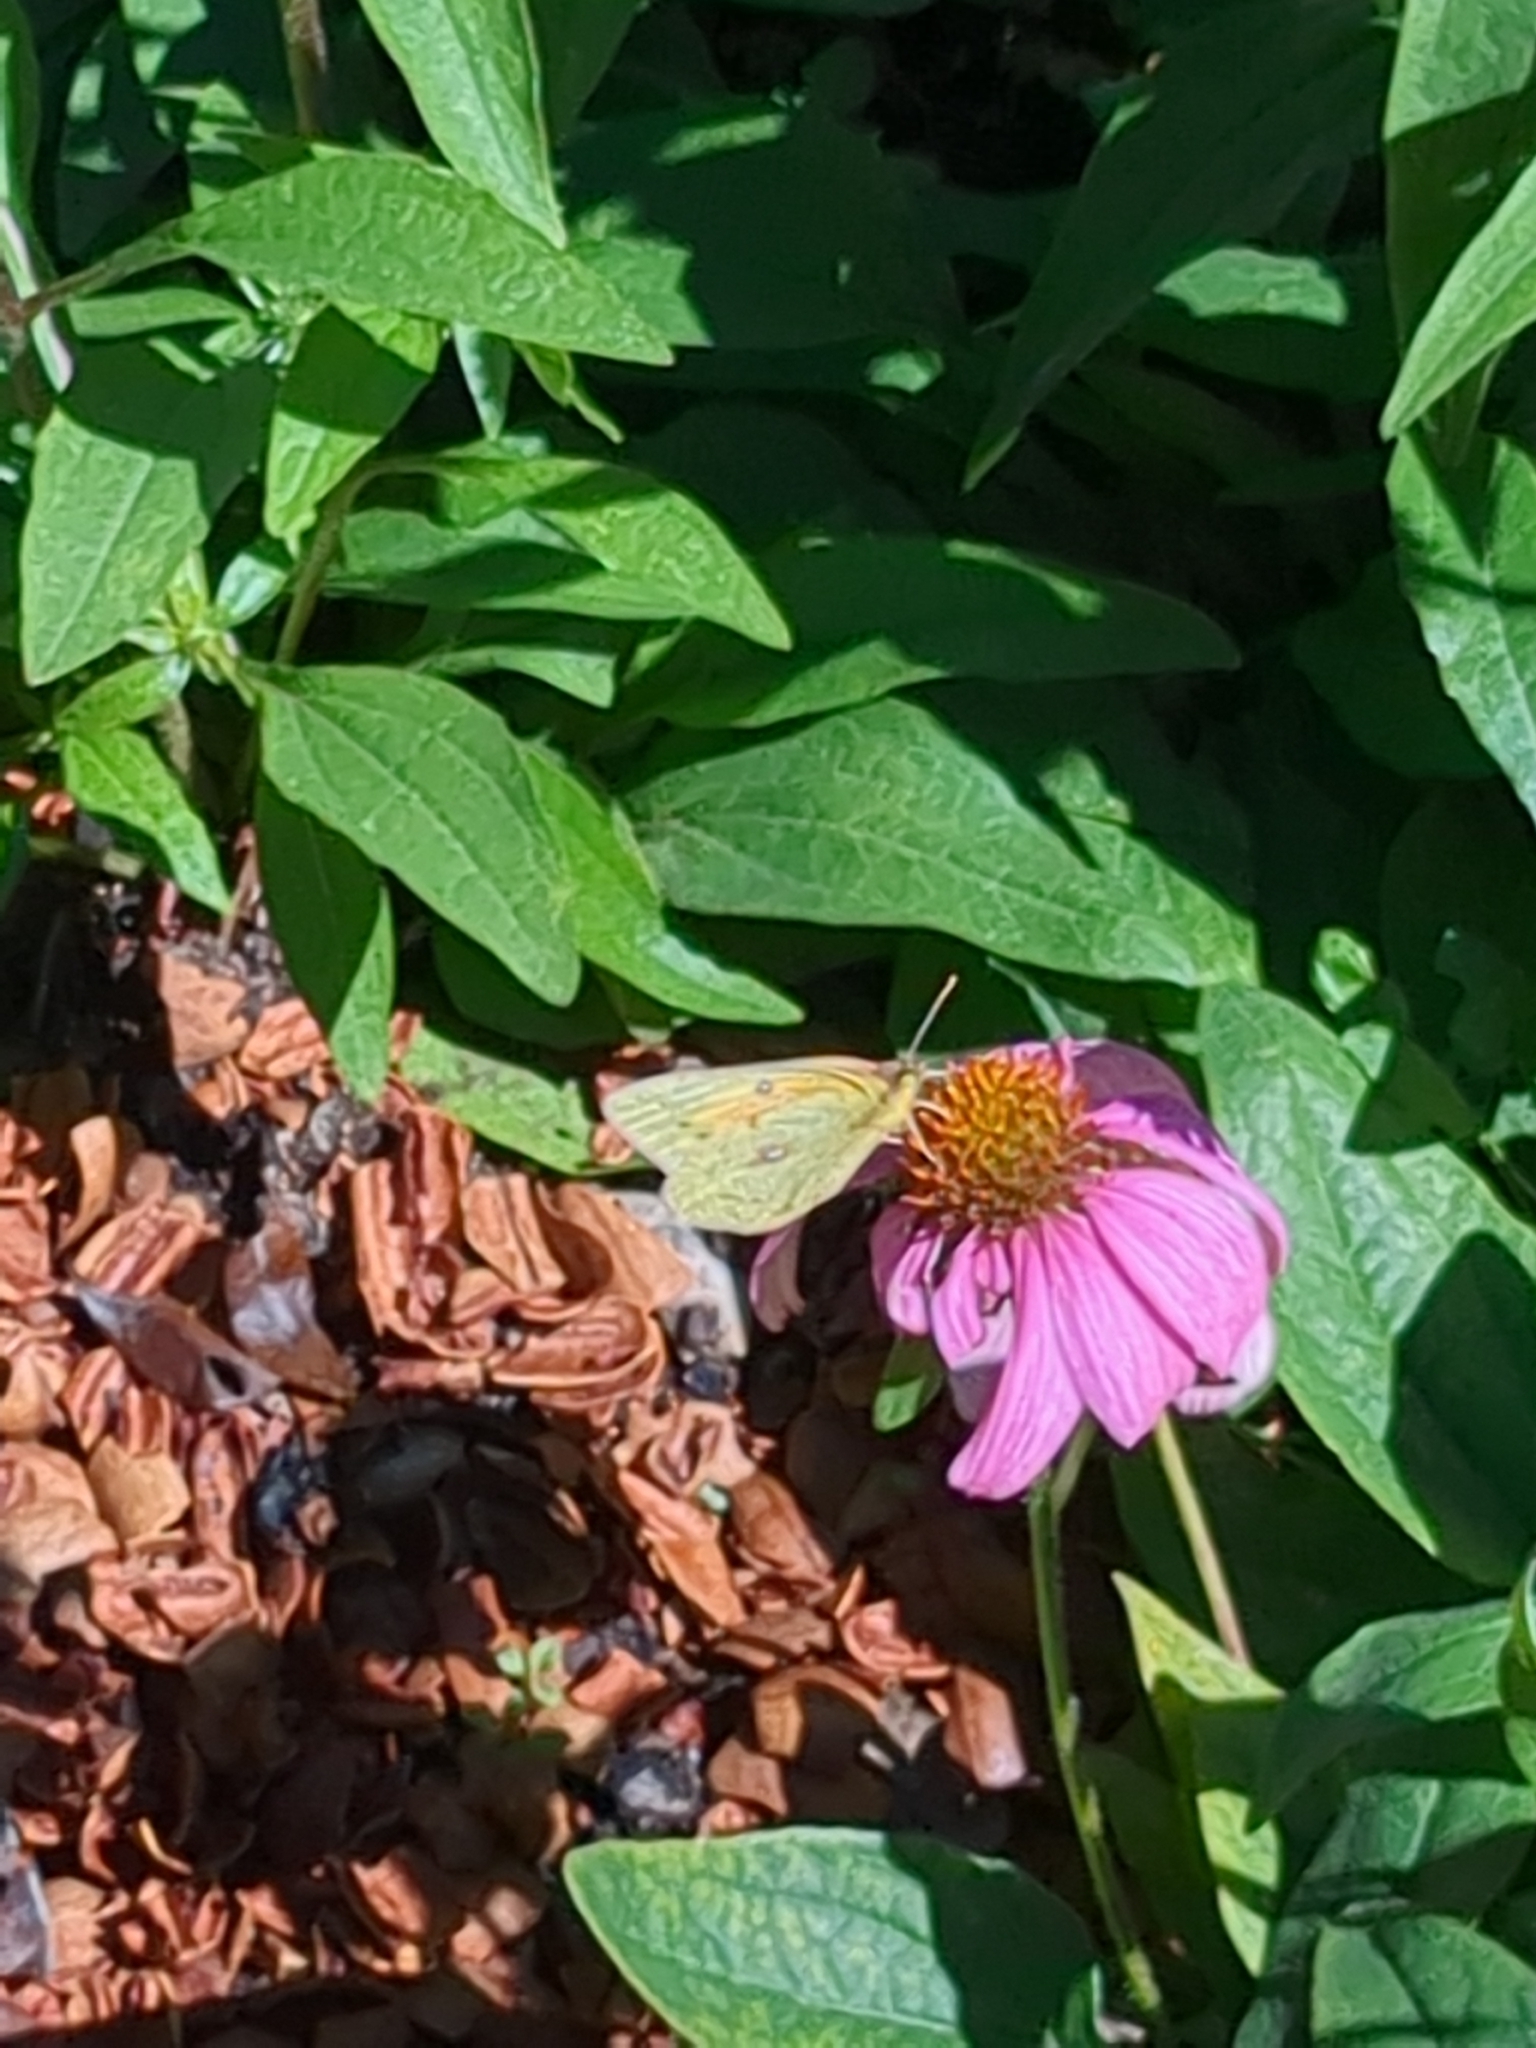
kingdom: Animalia
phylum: Arthropoda
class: Insecta
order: Lepidoptera
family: Pieridae
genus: Colias
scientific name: Colias eurytheme
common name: Alfalfa butterfly
